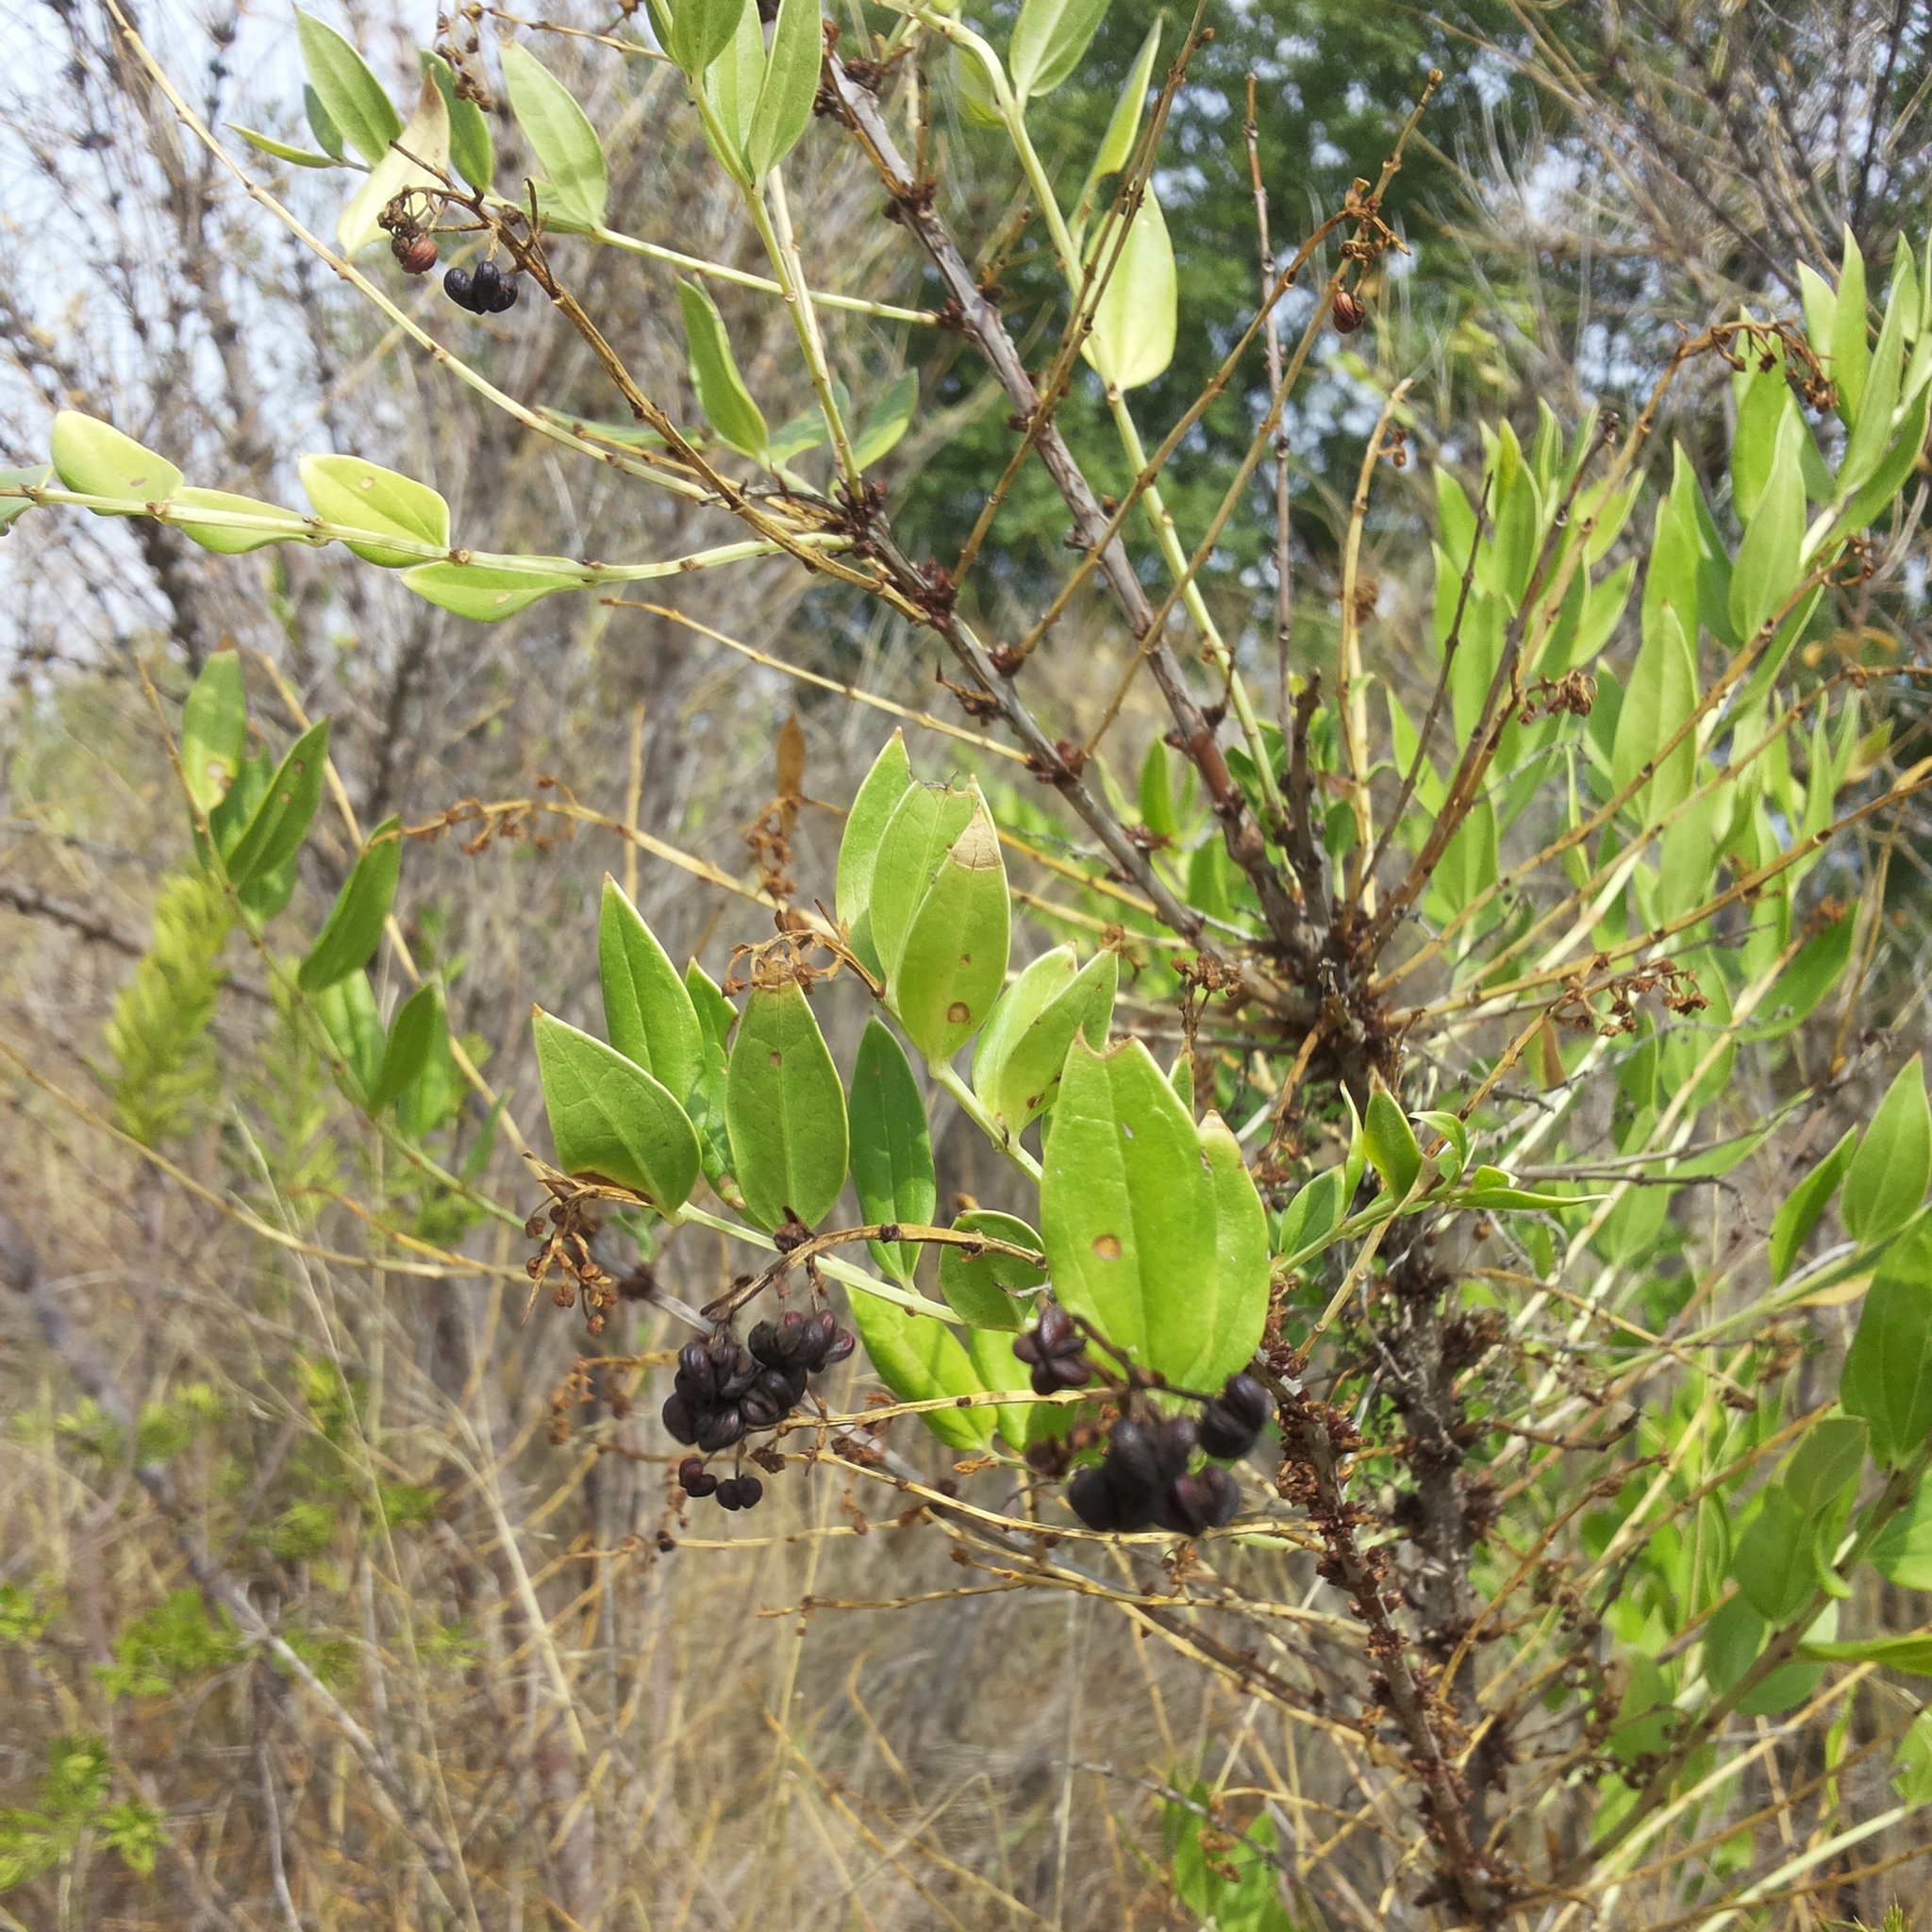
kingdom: Plantae
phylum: Tracheophyta
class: Magnoliopsida
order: Cucurbitales
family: Coriariaceae
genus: Coriaria
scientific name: Coriaria myrtifolia
